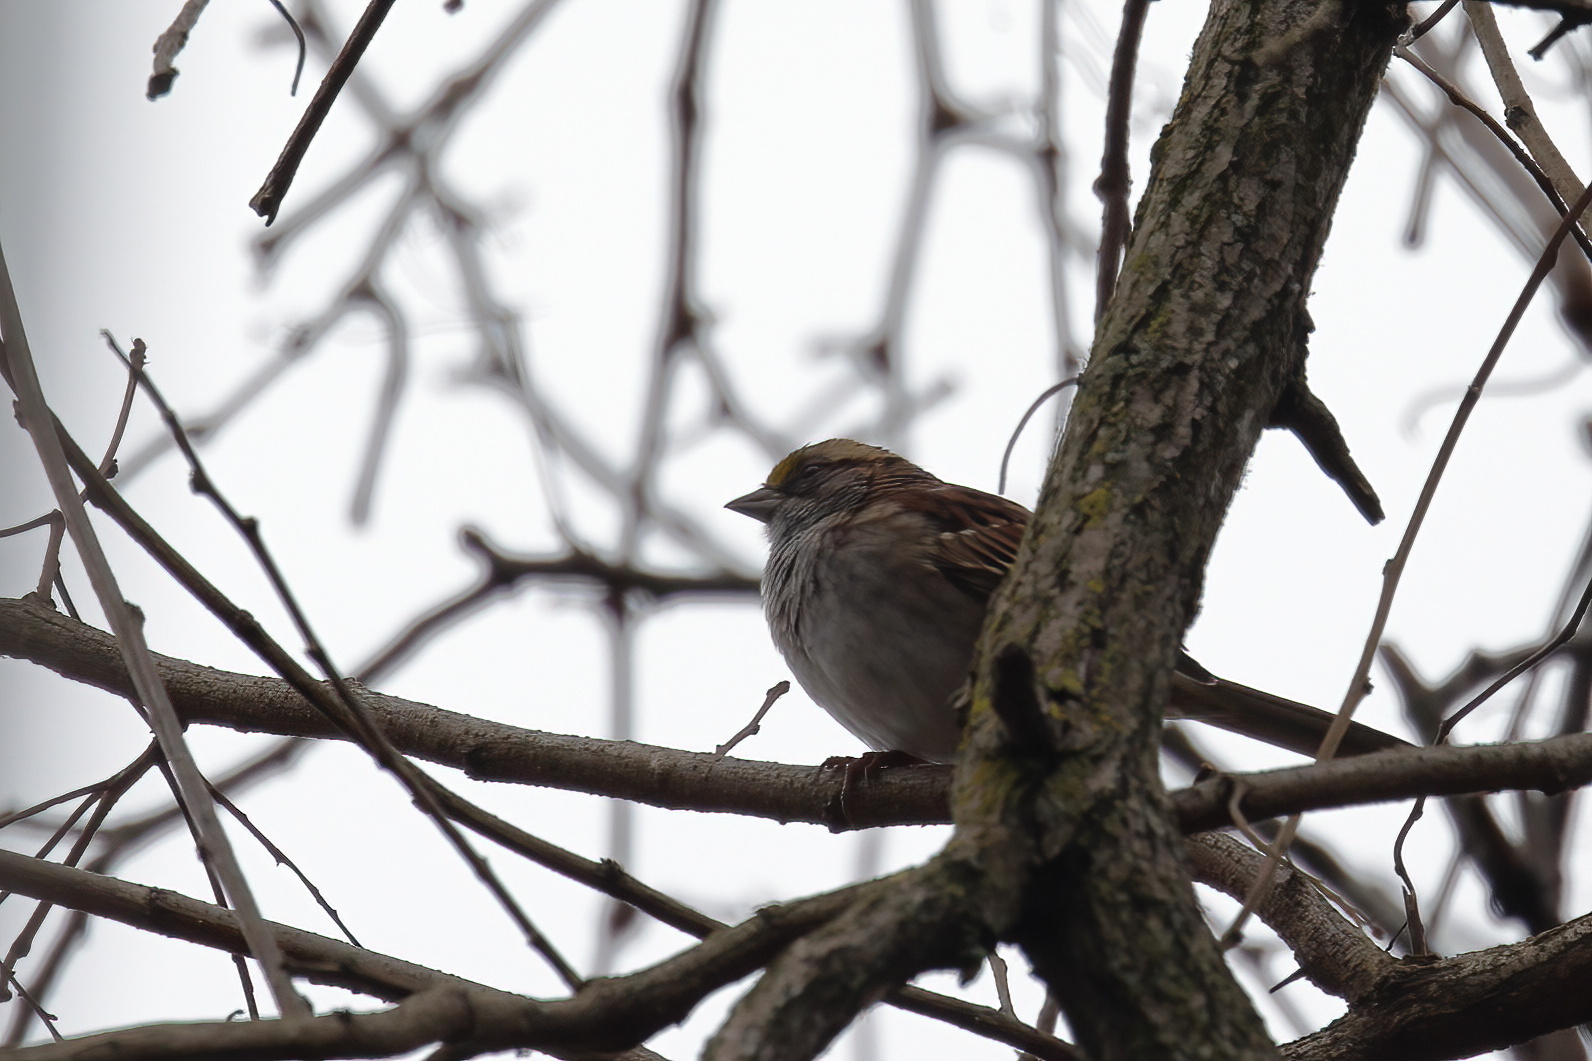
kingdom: Animalia
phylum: Chordata
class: Aves
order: Passeriformes
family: Passerellidae
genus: Zonotrichia
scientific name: Zonotrichia albicollis
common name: White-throated sparrow
